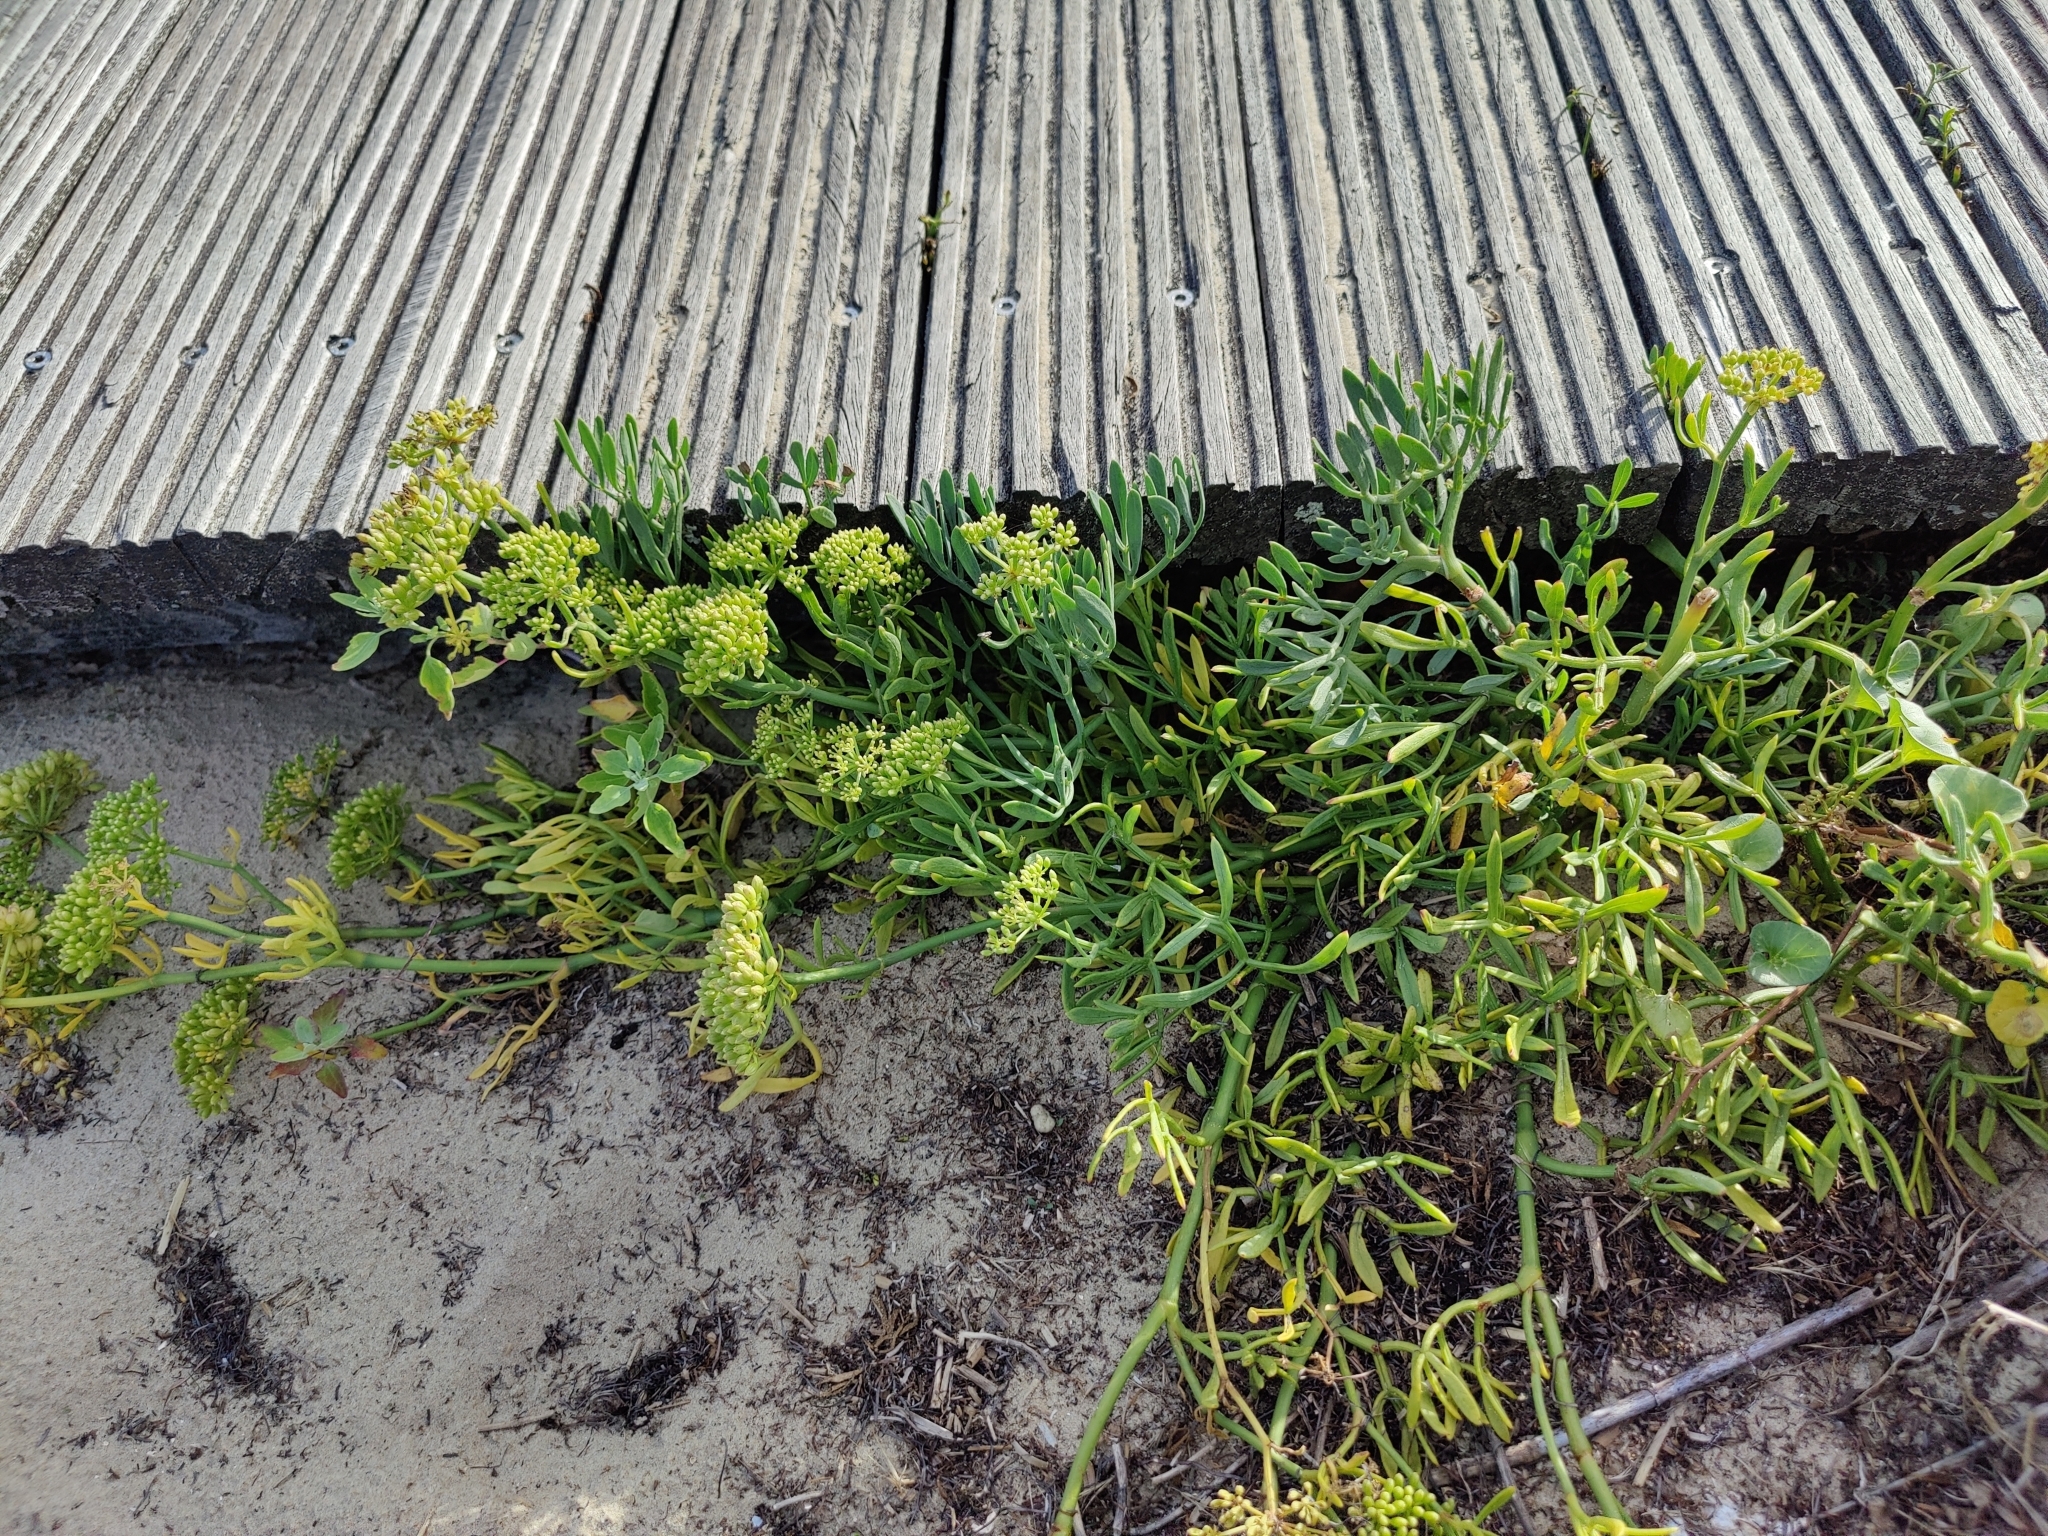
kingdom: Plantae
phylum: Tracheophyta
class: Magnoliopsida
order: Apiales
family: Apiaceae
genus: Crithmum
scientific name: Crithmum maritimum
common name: Rock samphire
